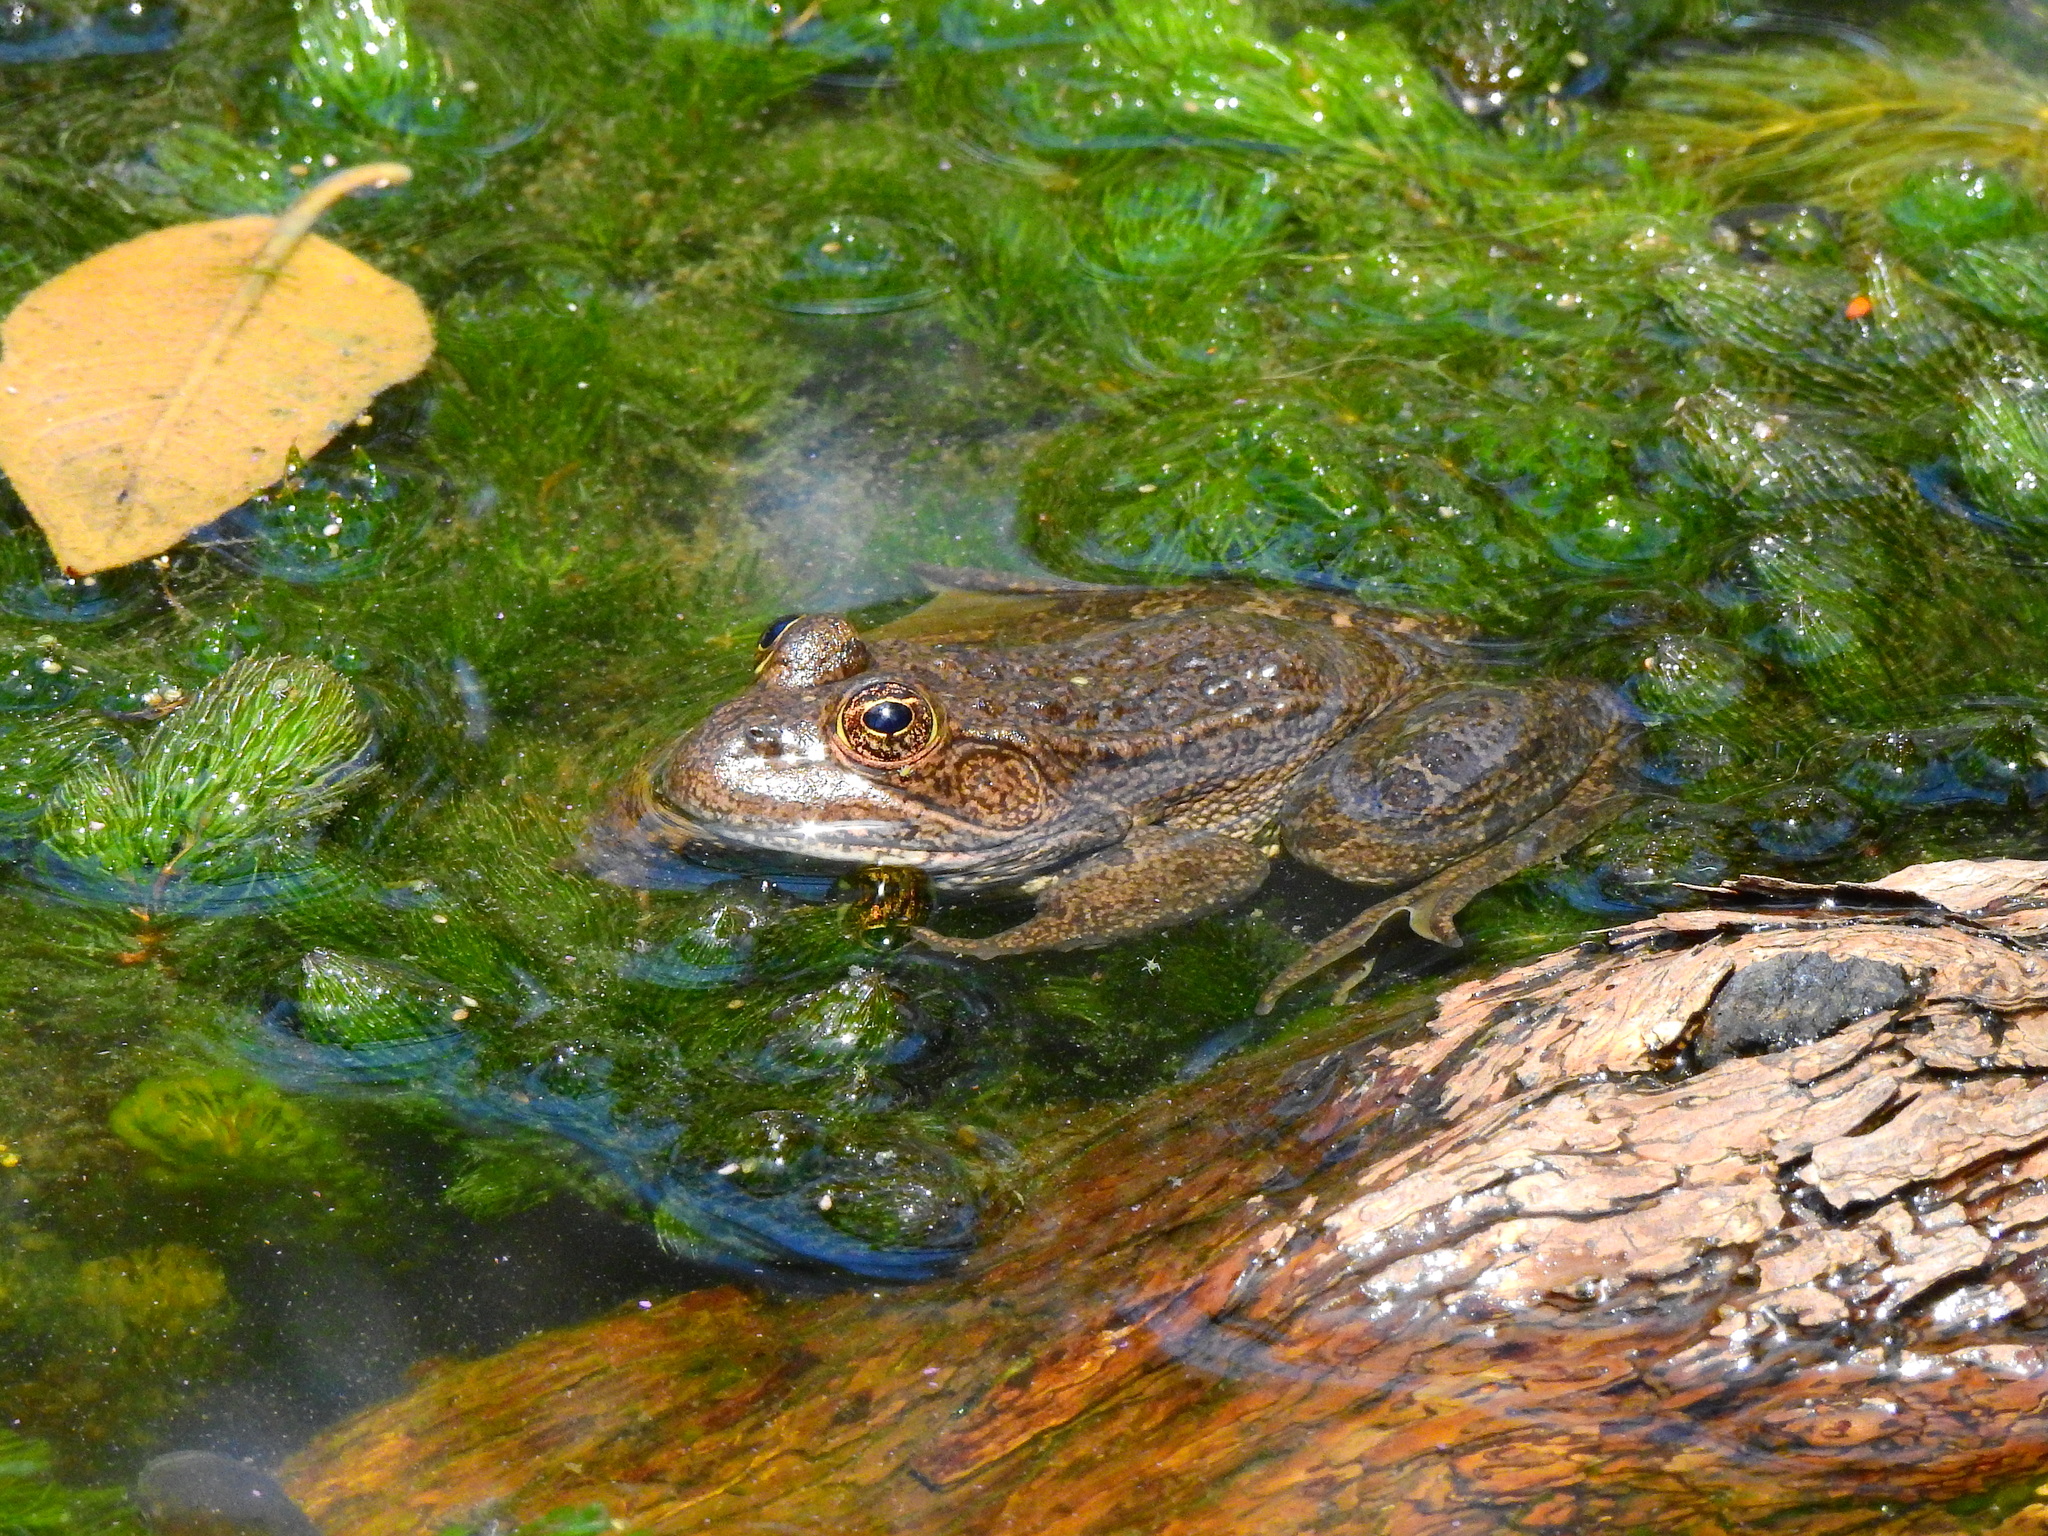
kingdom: Animalia
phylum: Chordata
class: Amphibia
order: Anura
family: Ranidae
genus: Lithobates
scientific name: Lithobates montezumae
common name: Montezuma leopard frog
